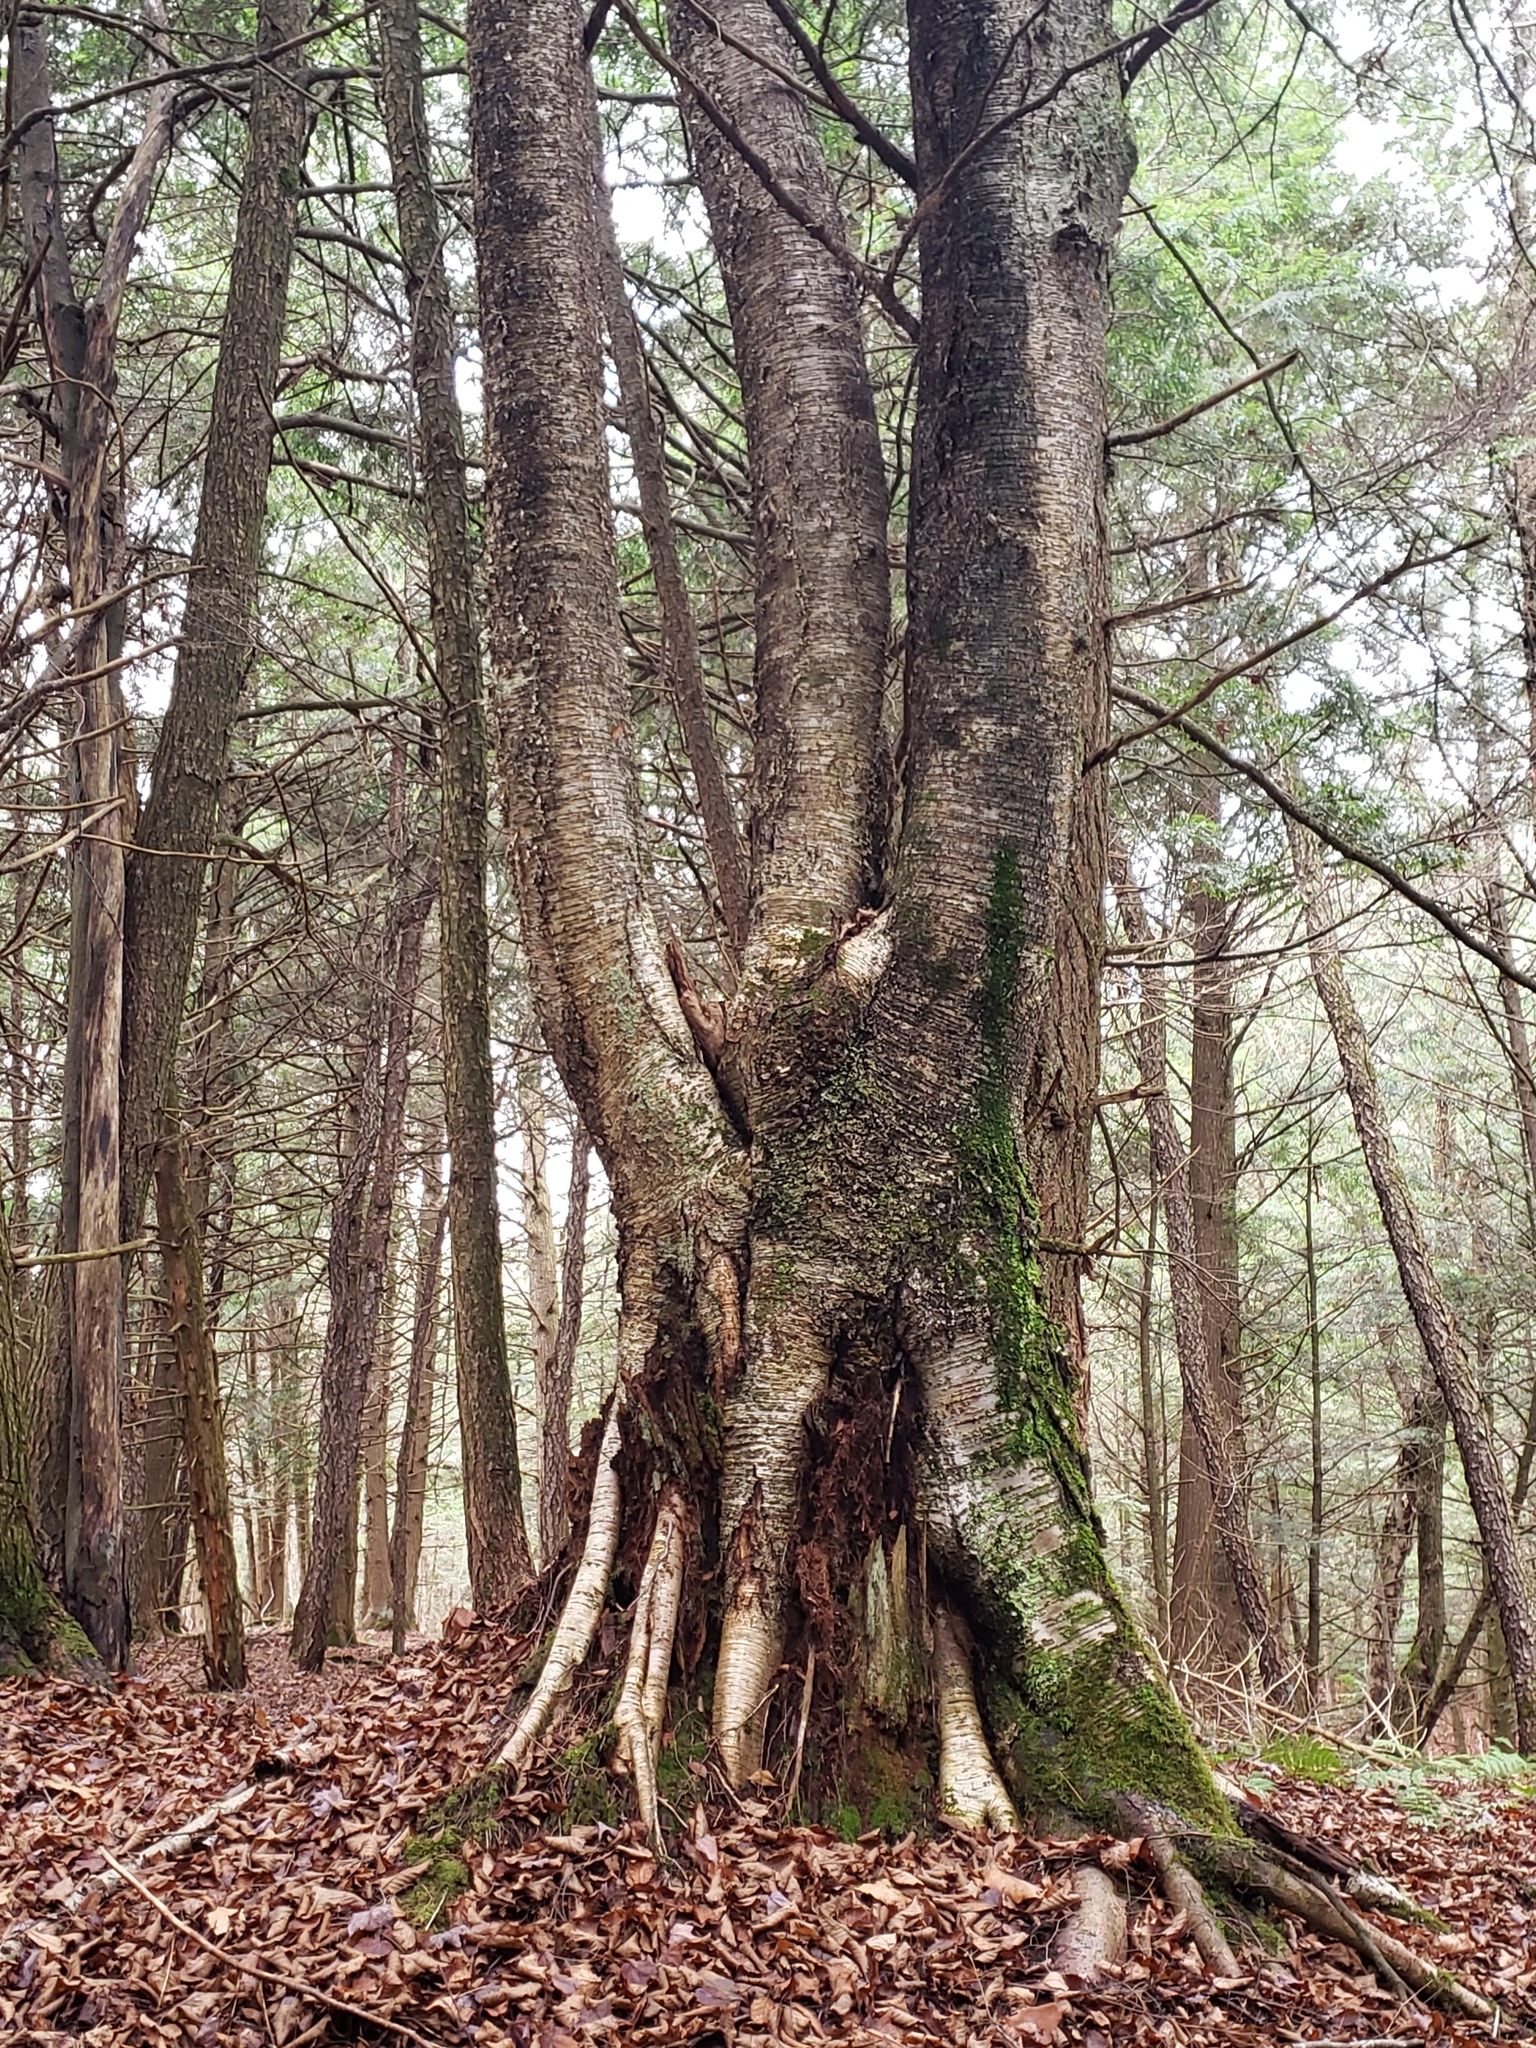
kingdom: Plantae
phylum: Tracheophyta
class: Magnoliopsida
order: Fagales
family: Betulaceae
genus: Betula
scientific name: Betula alleghaniensis
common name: Yellow birch
